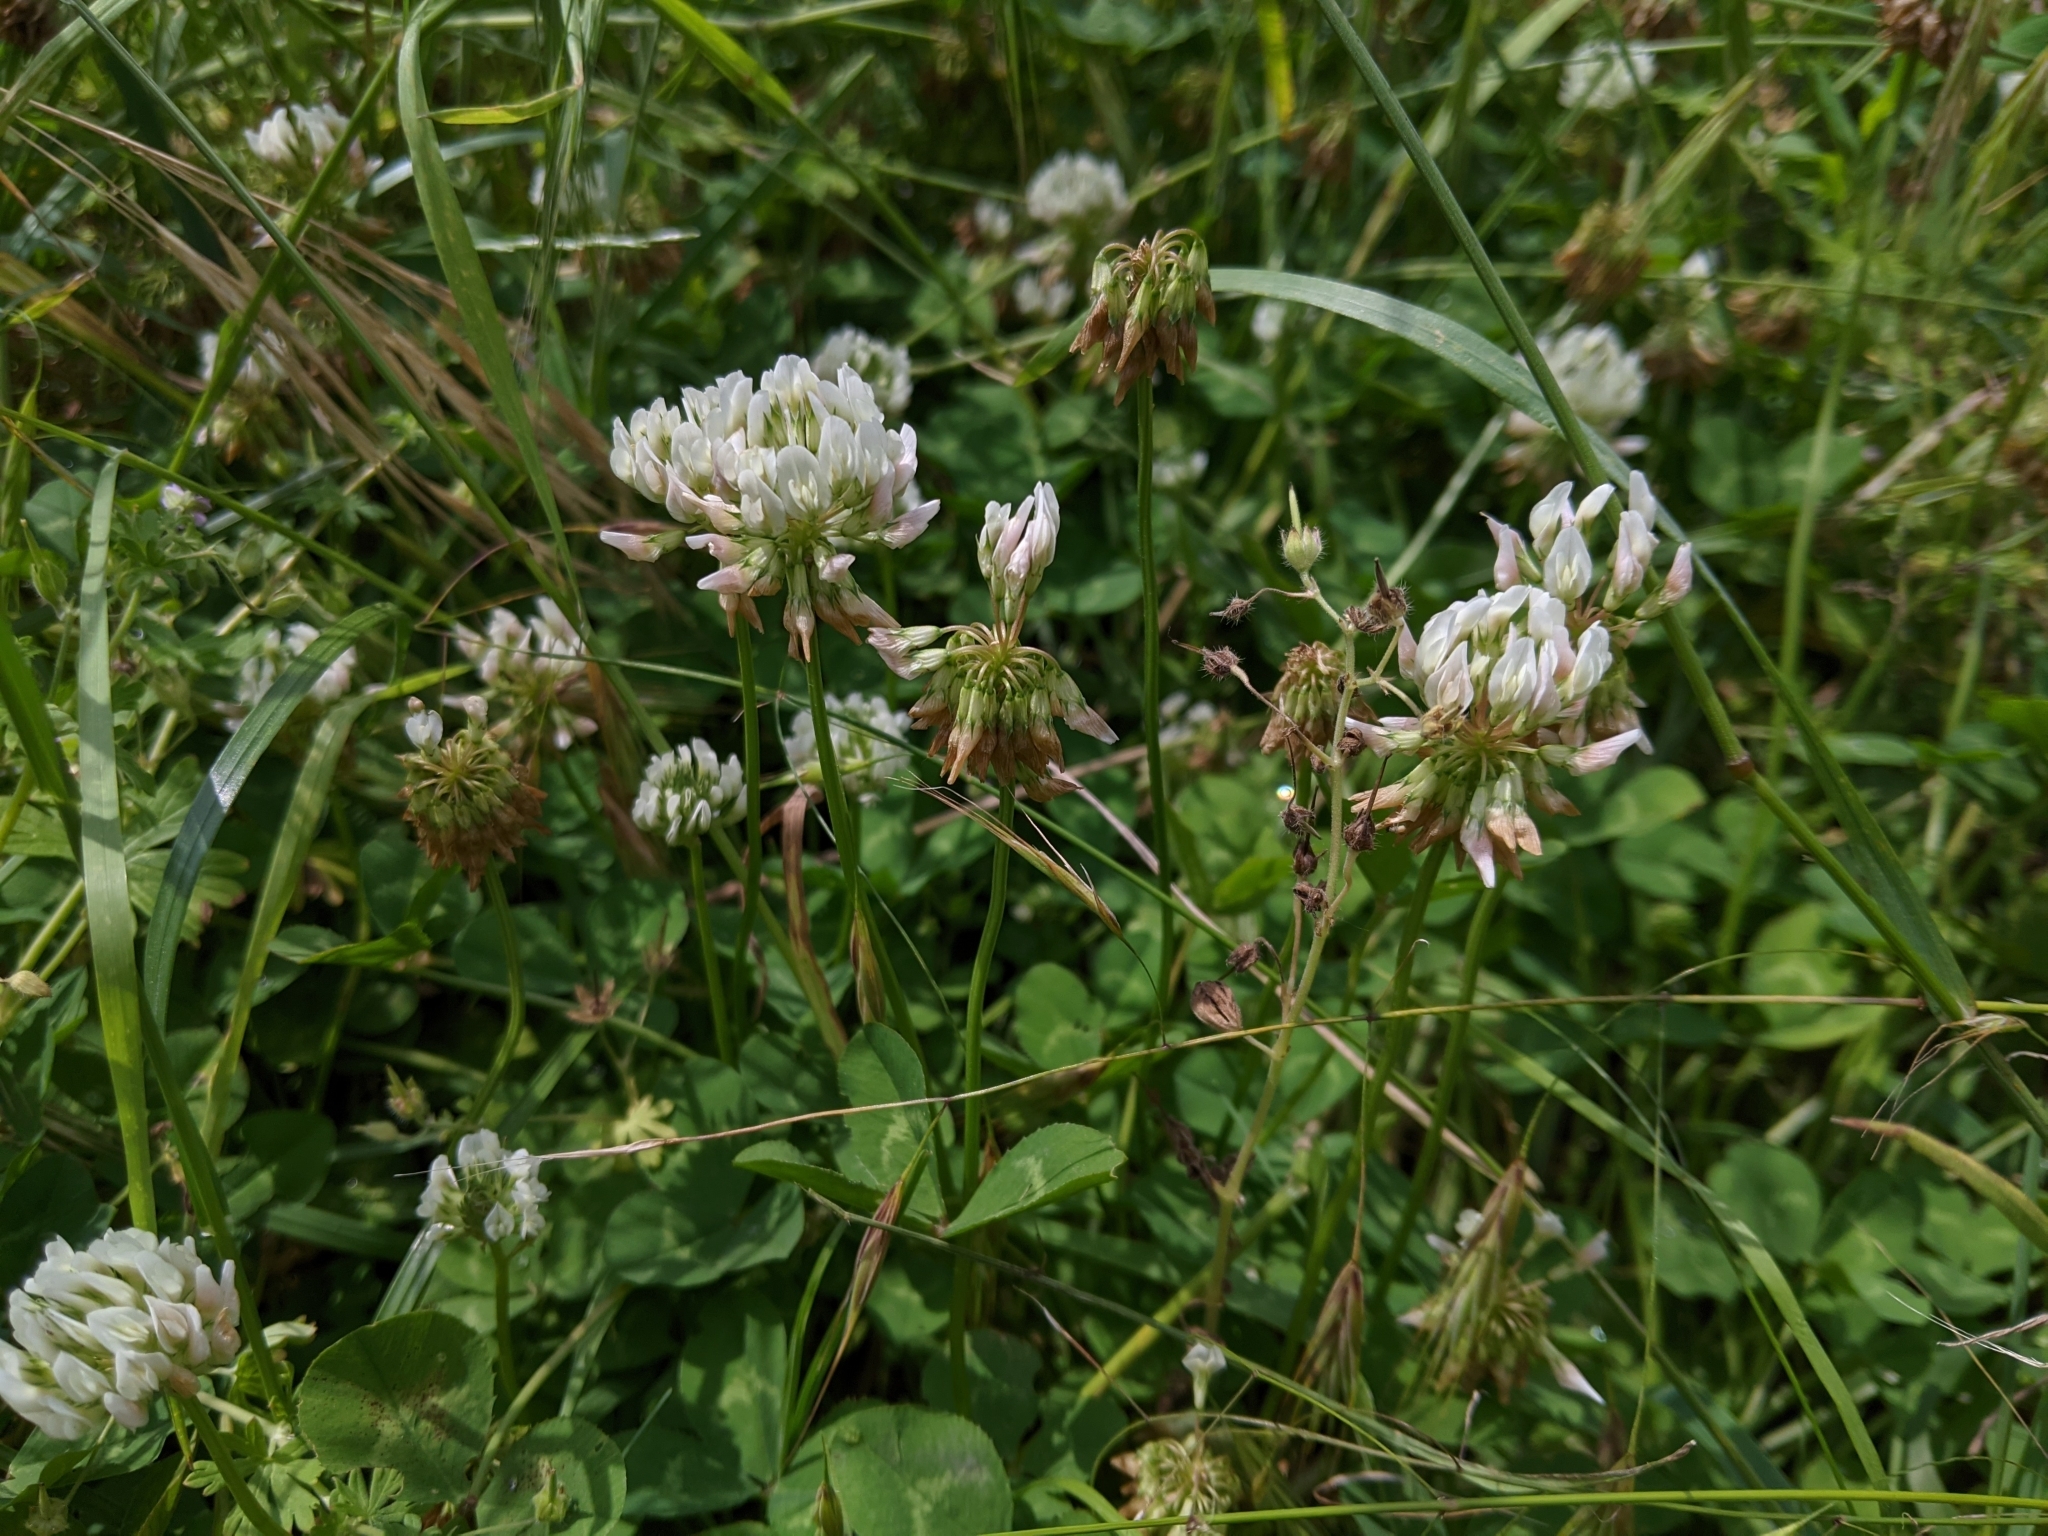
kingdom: Plantae
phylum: Tracheophyta
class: Magnoliopsida
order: Fabales
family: Fabaceae
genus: Trifolium
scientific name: Trifolium repens
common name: White clover
